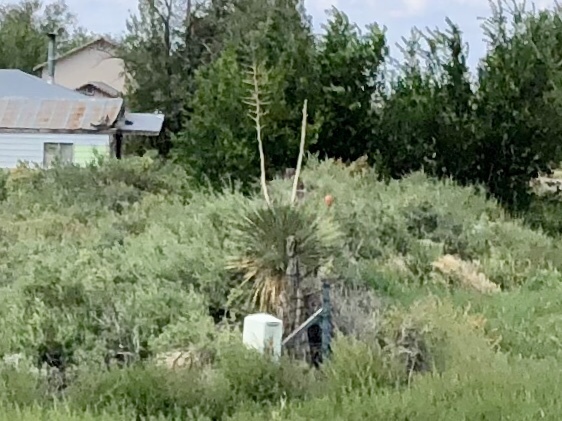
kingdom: Plantae
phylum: Tracheophyta
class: Liliopsida
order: Asparagales
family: Asparagaceae
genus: Yucca
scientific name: Yucca elata
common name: Palmella
